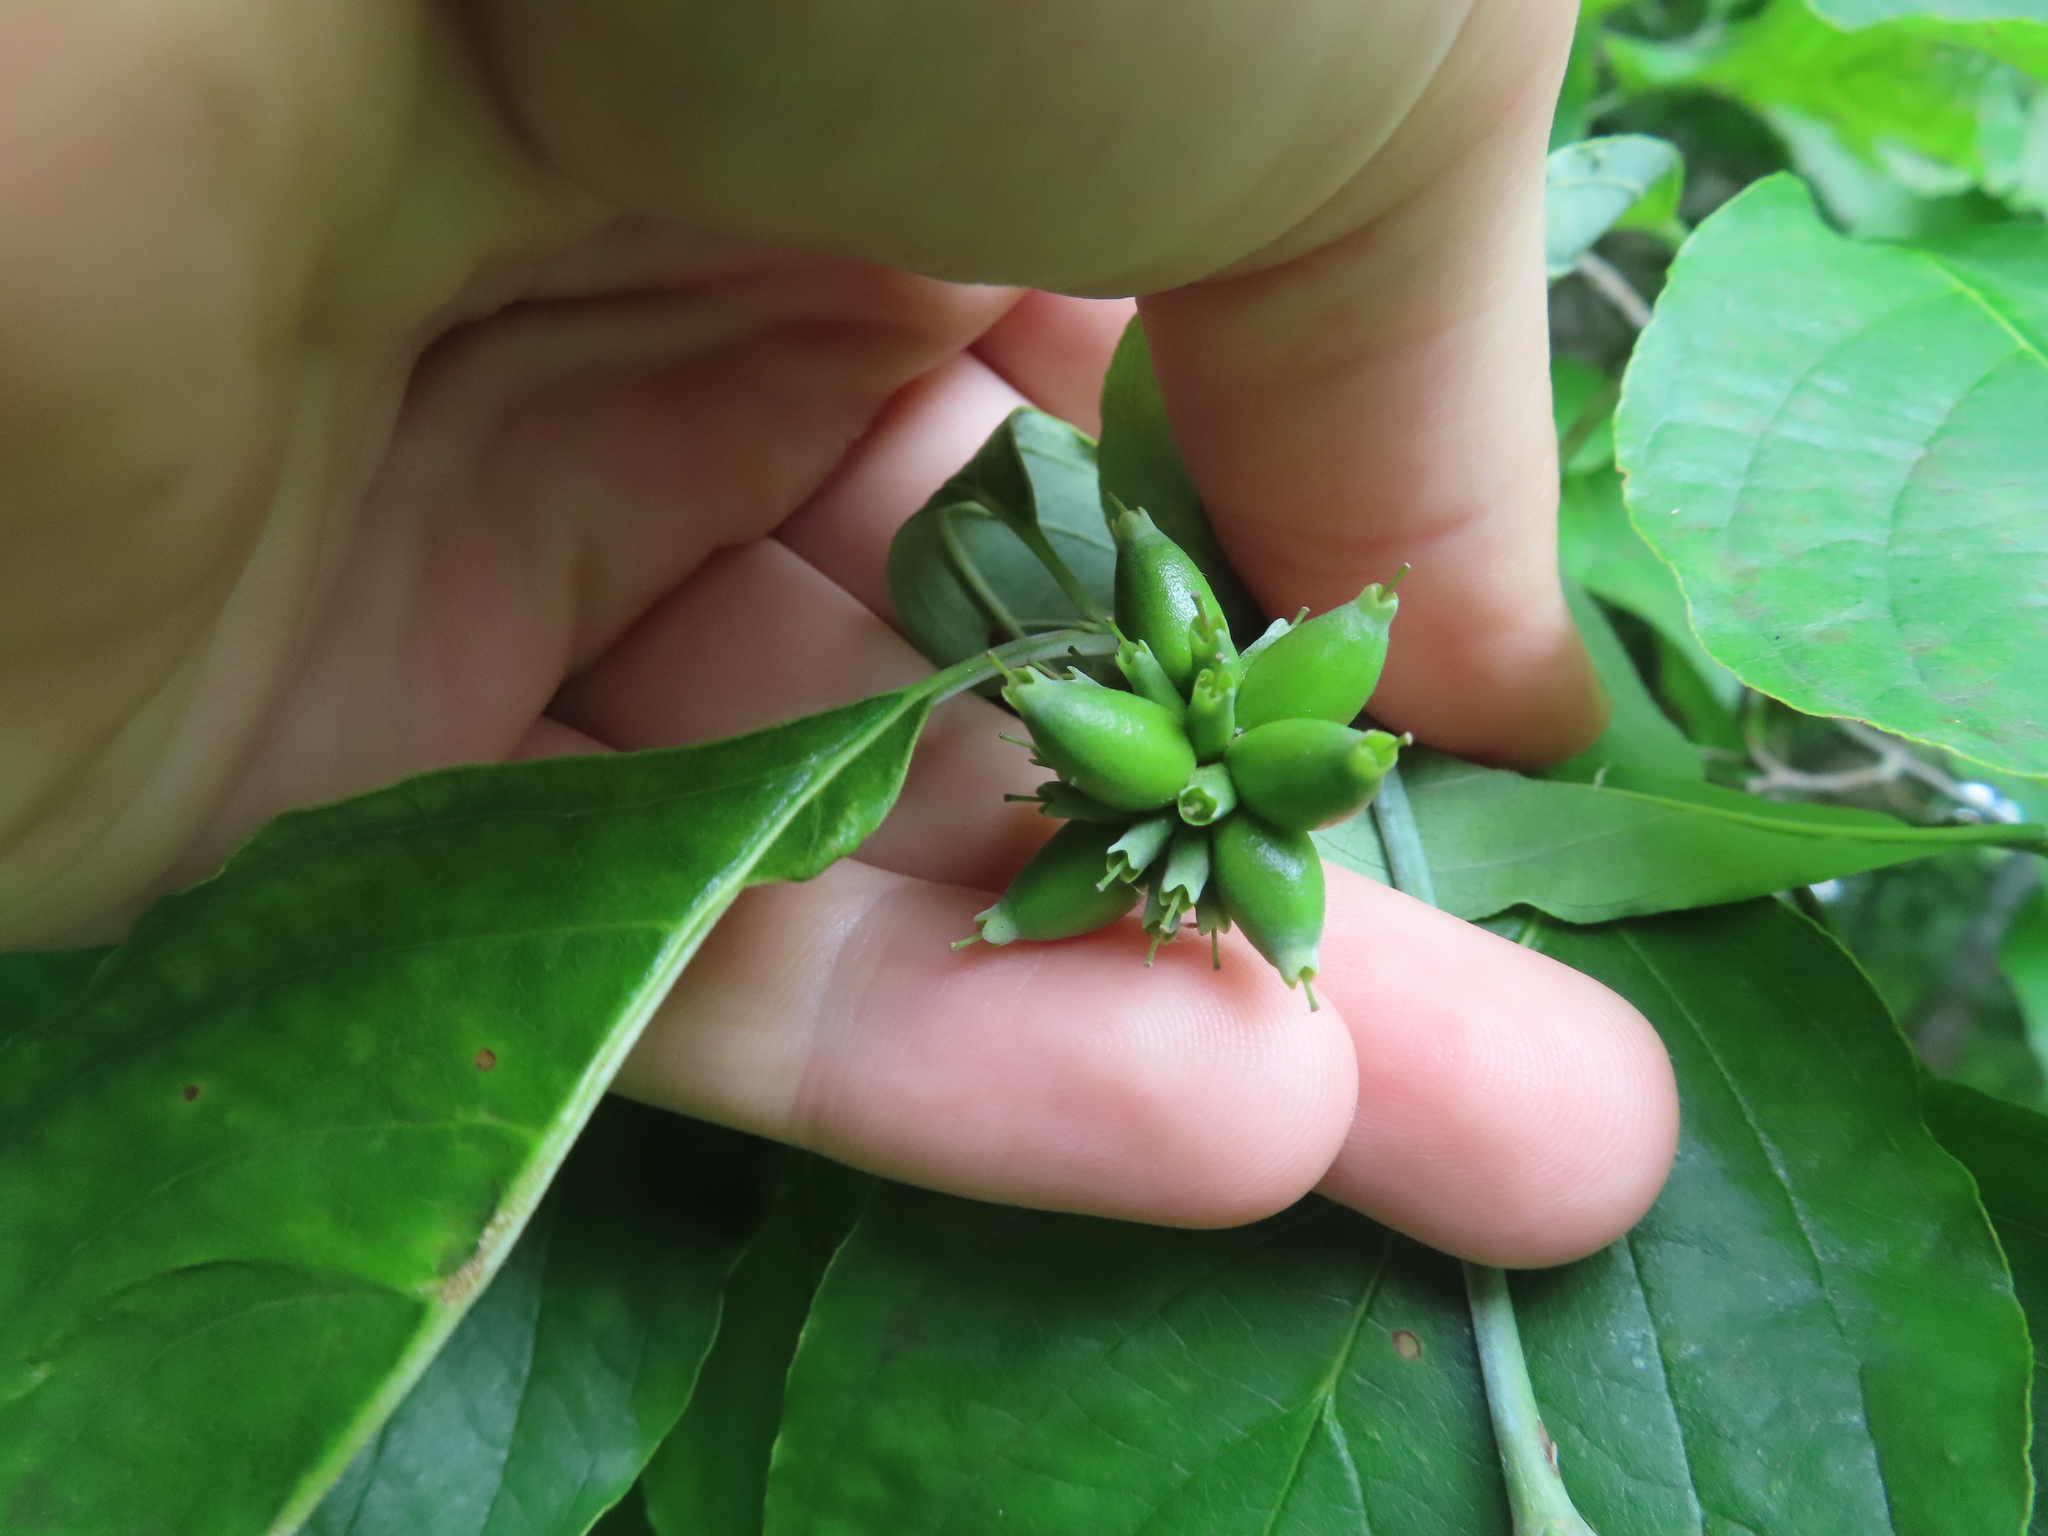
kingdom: Plantae
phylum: Tracheophyta
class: Magnoliopsida
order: Cornales
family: Cornaceae
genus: Cornus
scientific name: Cornus florida
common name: Flowering dogwood
